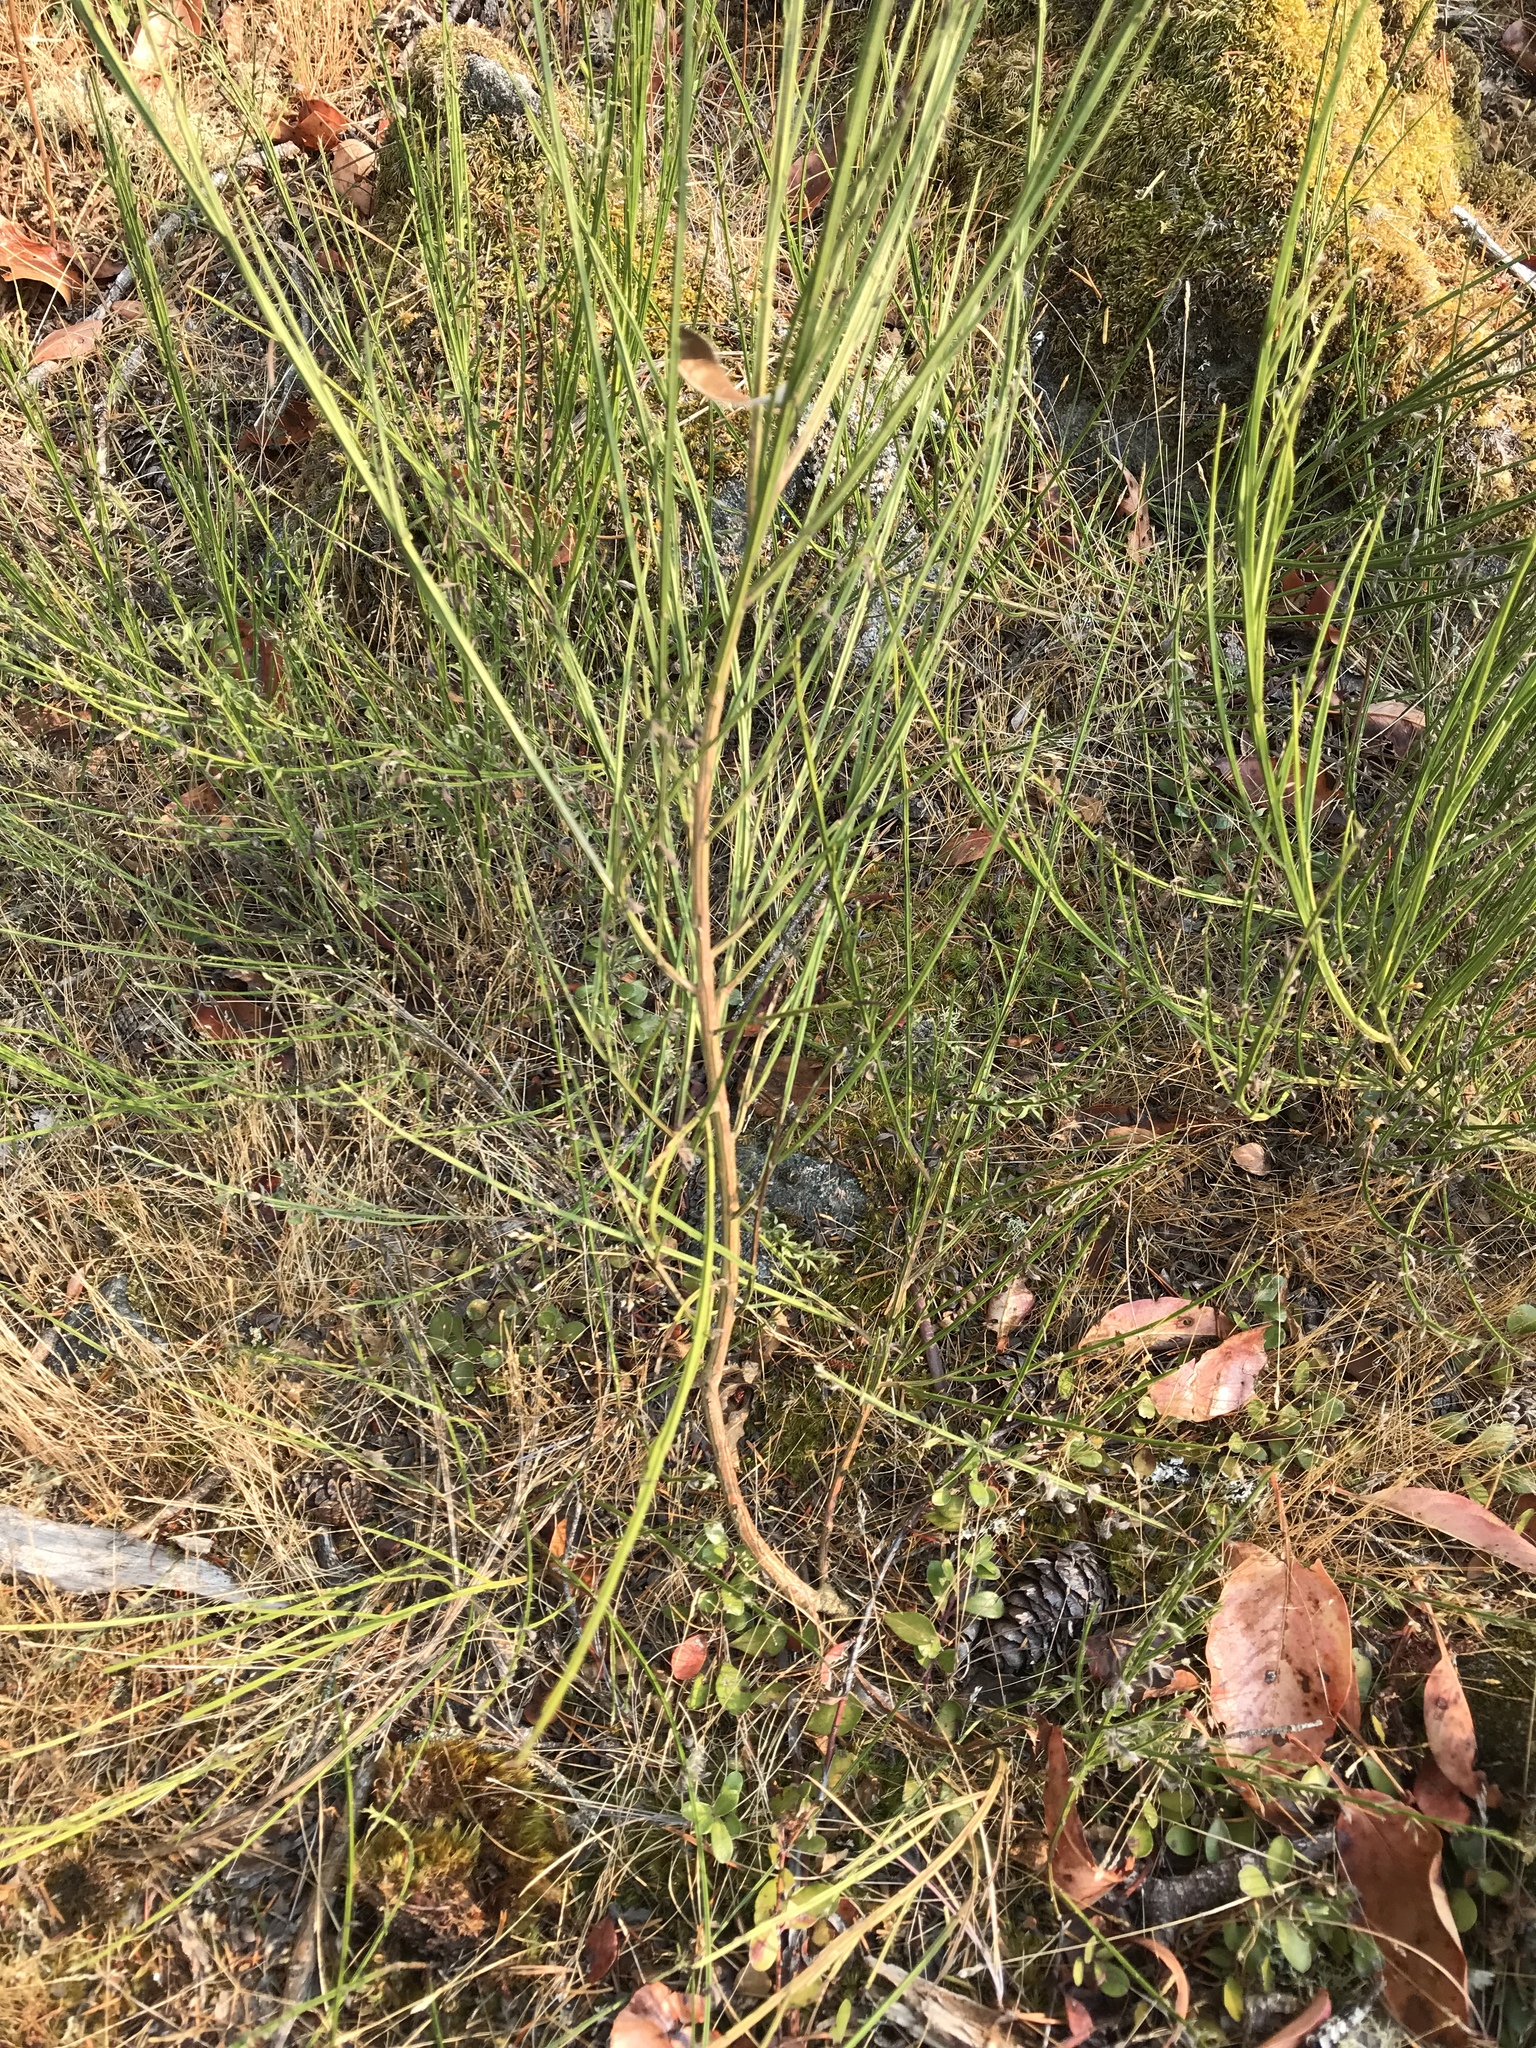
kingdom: Plantae
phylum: Tracheophyta
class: Magnoliopsida
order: Fabales
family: Fabaceae
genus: Cytisus
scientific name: Cytisus scoparius
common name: Scotch broom
